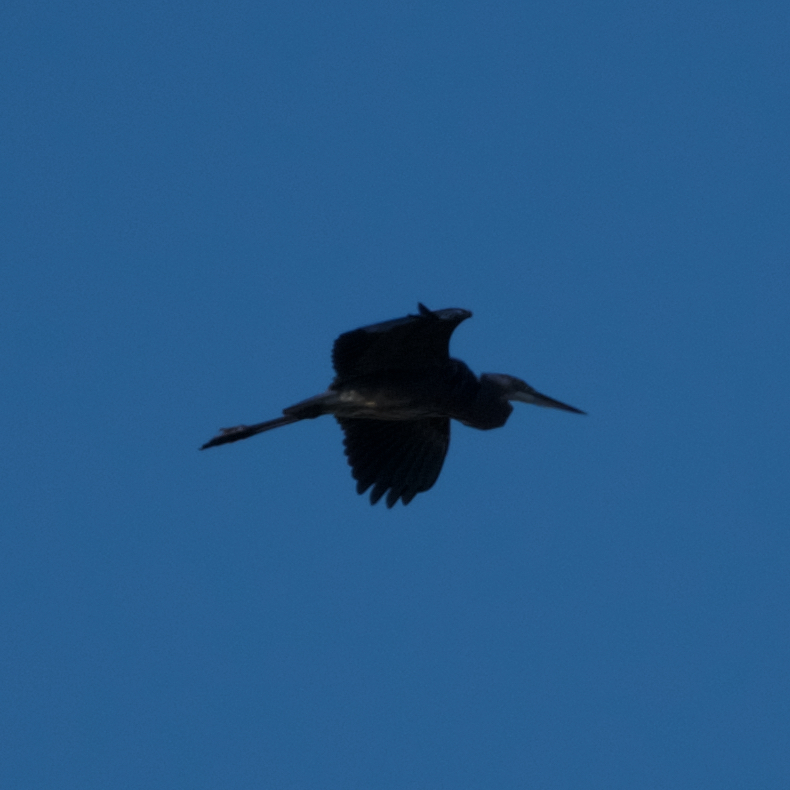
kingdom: Animalia
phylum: Chordata
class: Aves
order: Pelecaniformes
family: Ardeidae
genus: Ardea
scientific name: Ardea herodias
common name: Great blue heron
